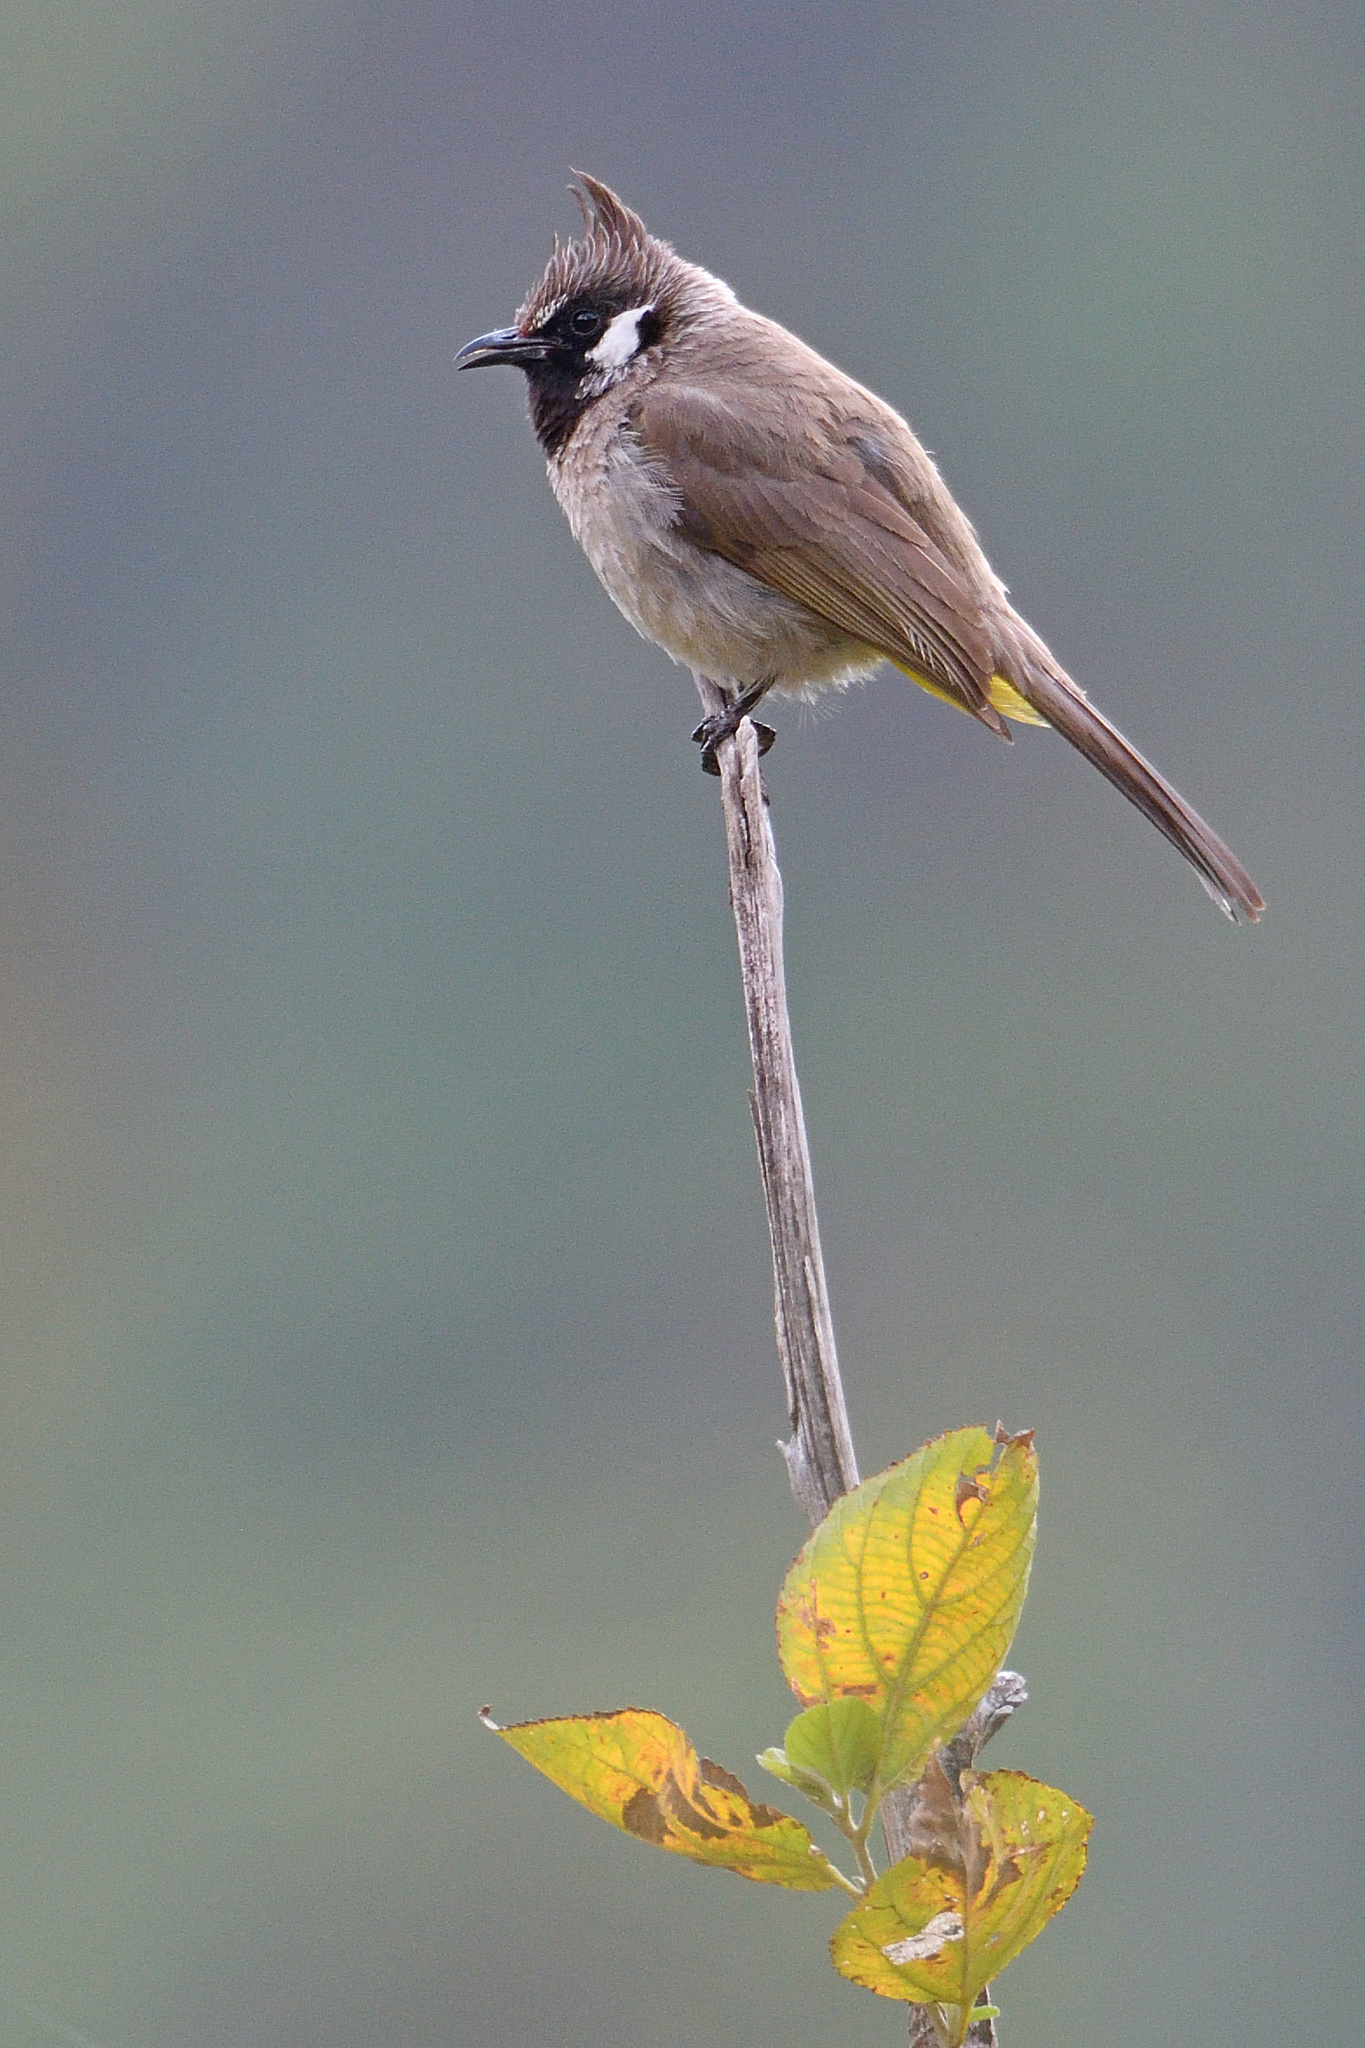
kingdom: Animalia
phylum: Chordata
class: Aves
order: Passeriformes
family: Pycnonotidae
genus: Pycnonotus
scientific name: Pycnonotus leucogenys
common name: Himalayan bulbul
